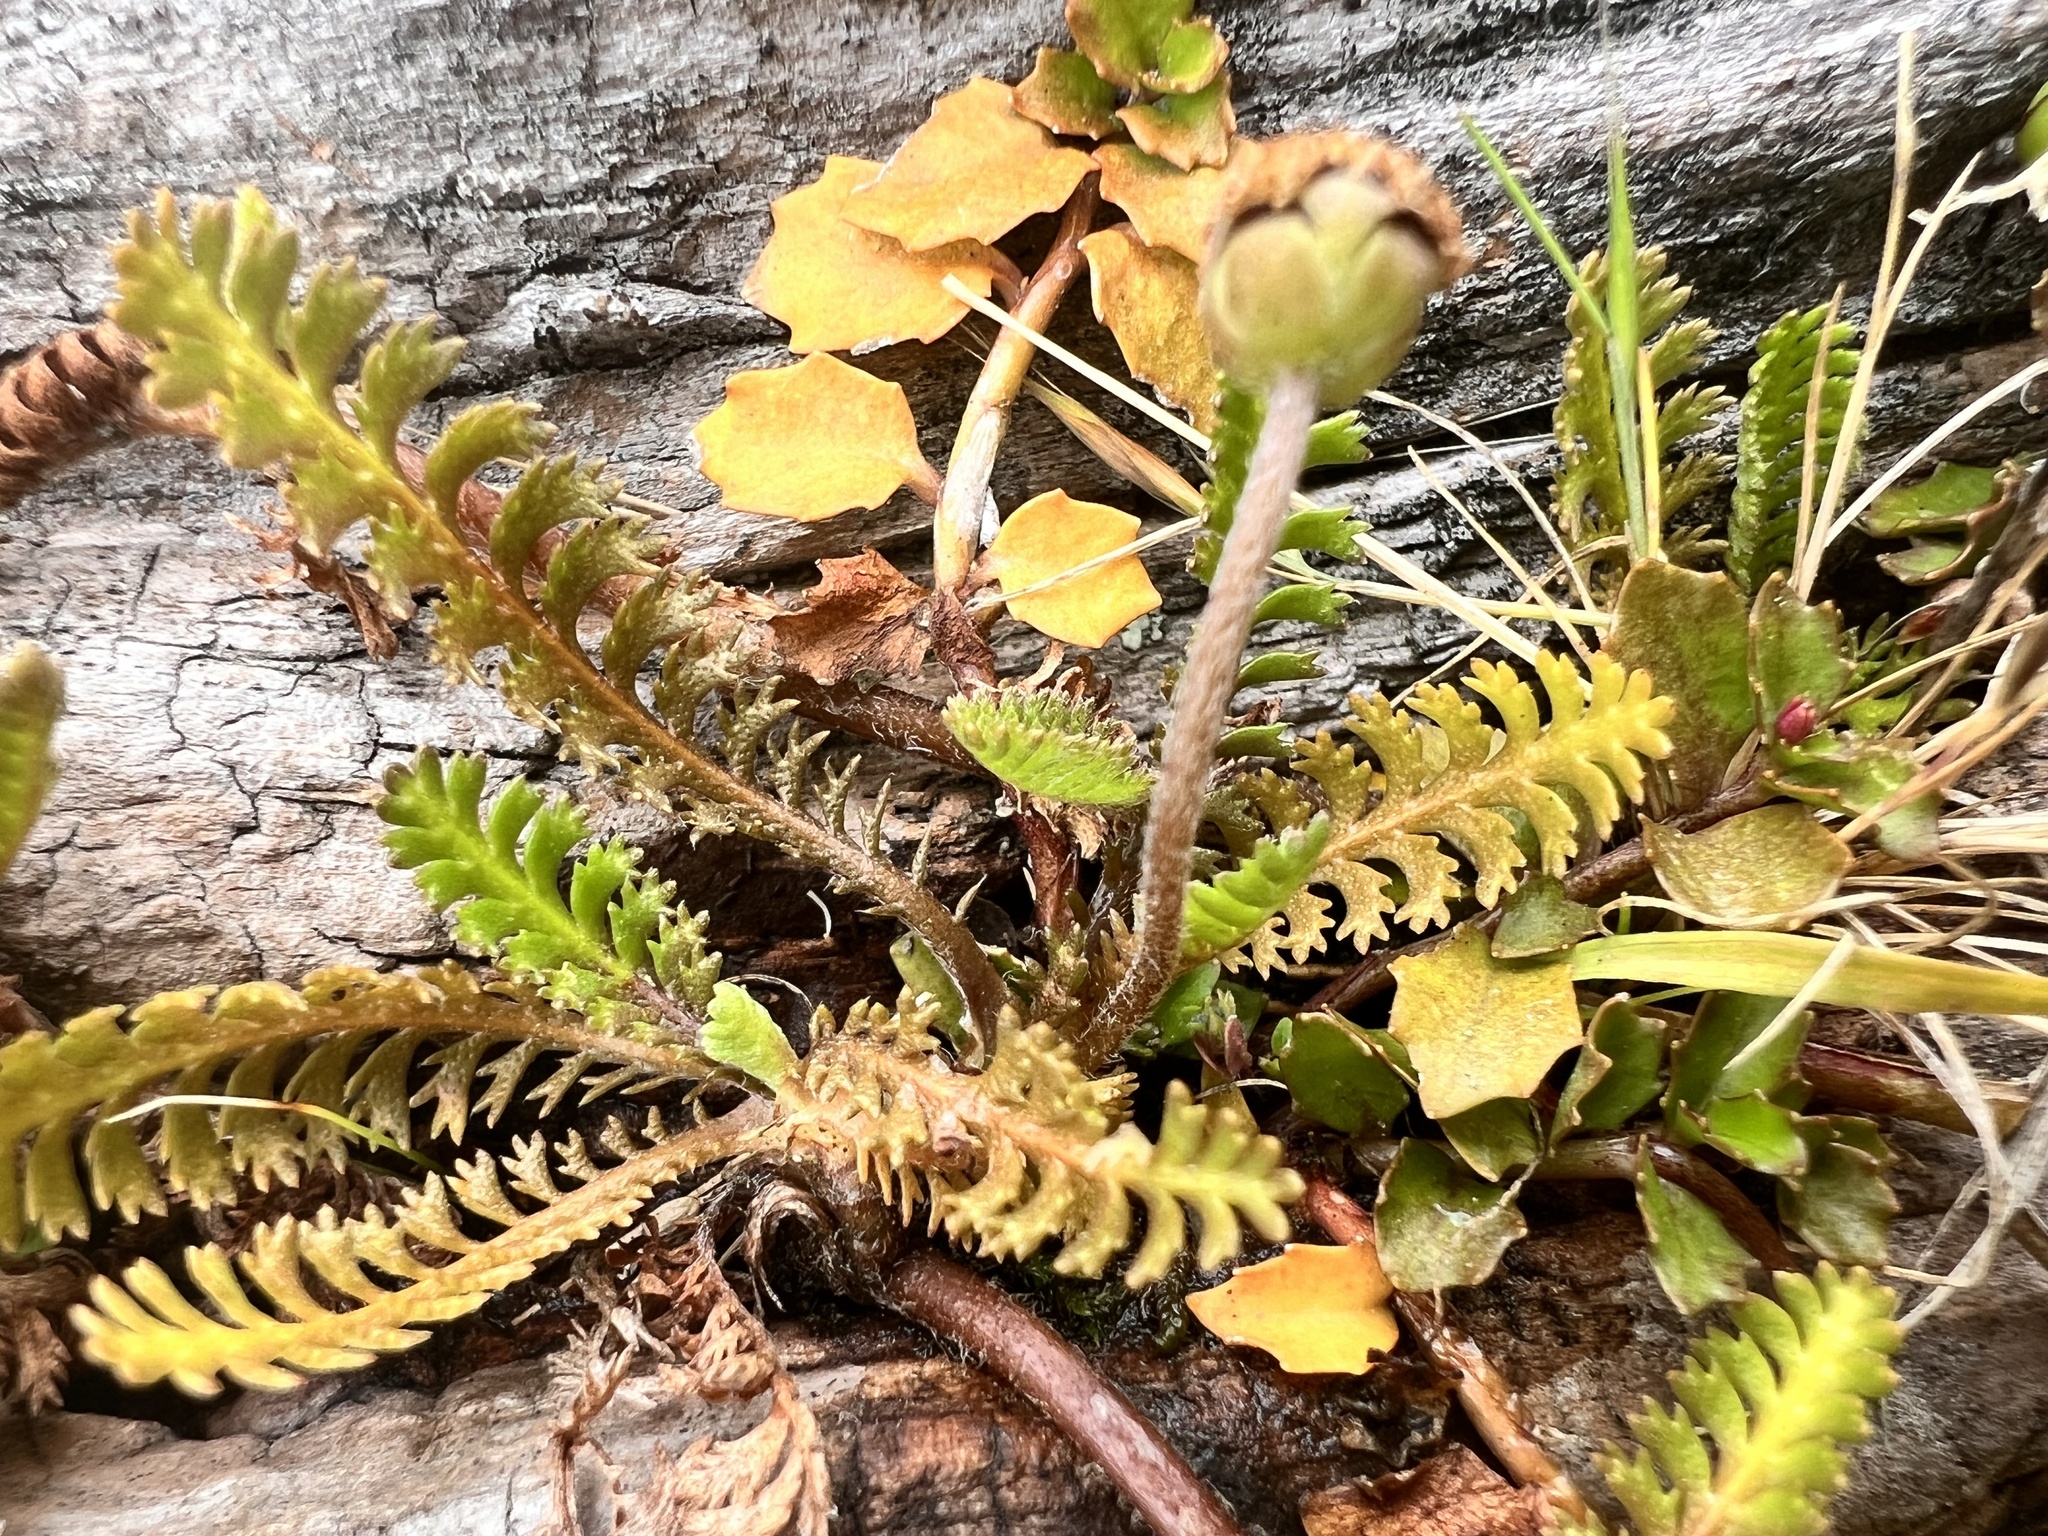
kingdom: Plantae
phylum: Tracheophyta
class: Magnoliopsida
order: Asterales
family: Asteraceae
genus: Leptinella
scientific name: Leptinella squalida
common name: New zealand brass-buttons
